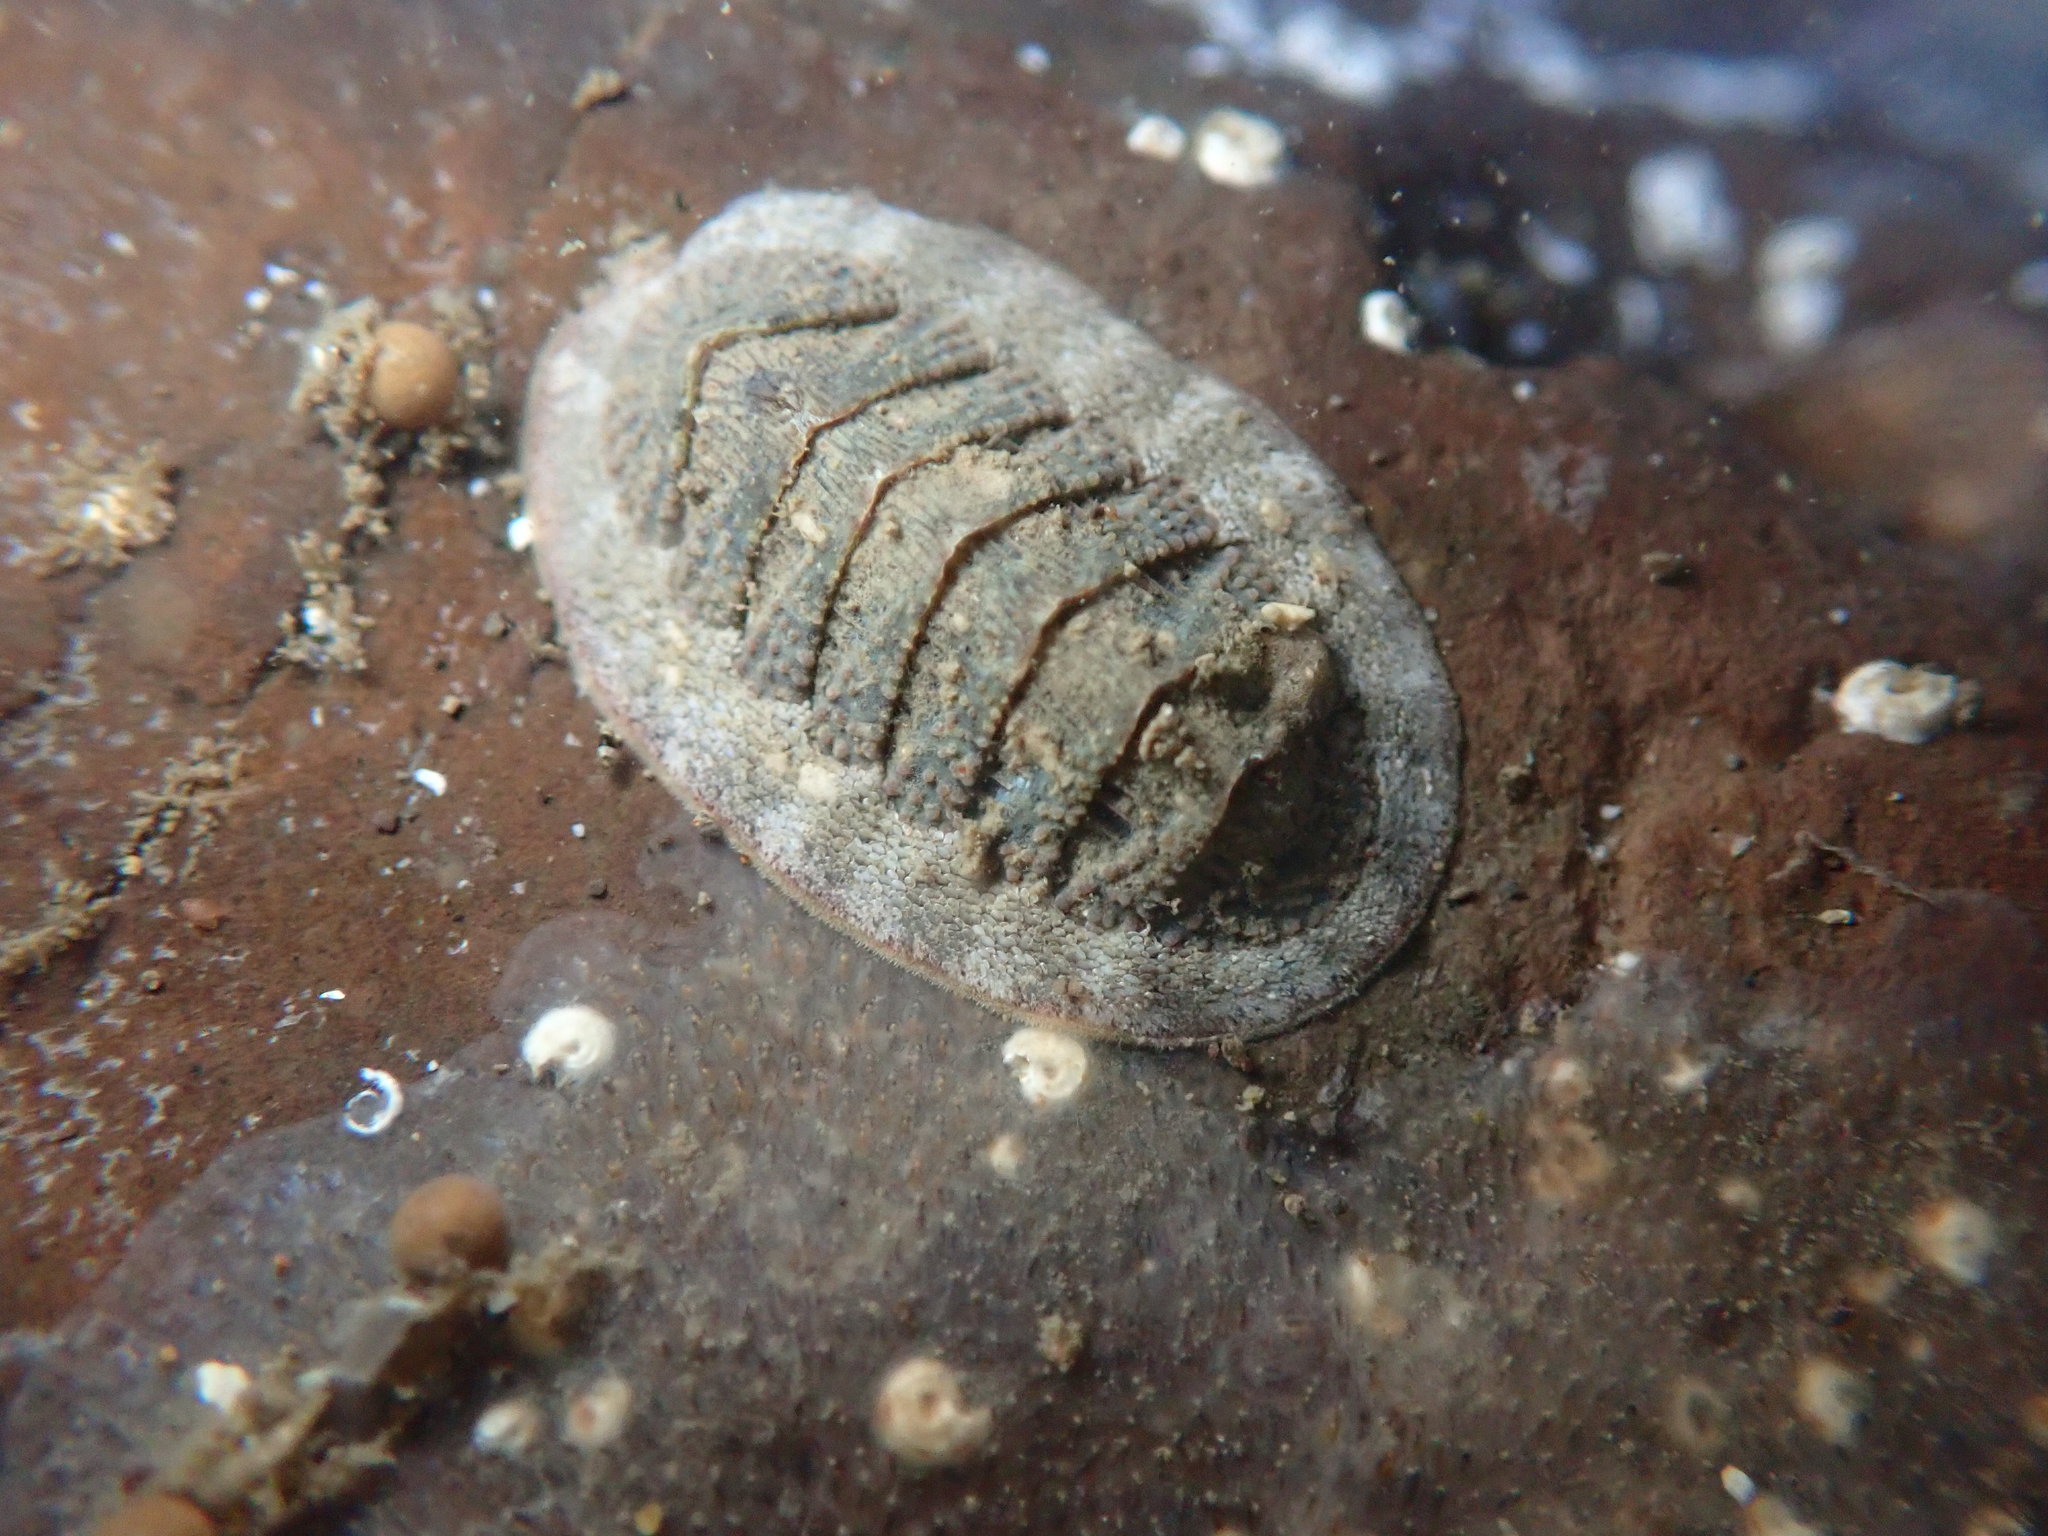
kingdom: Animalia
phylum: Mollusca
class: Polyplacophora
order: Chitonida
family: Ischnochitonidae
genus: Lepidozona
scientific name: Lepidozona cooperi
